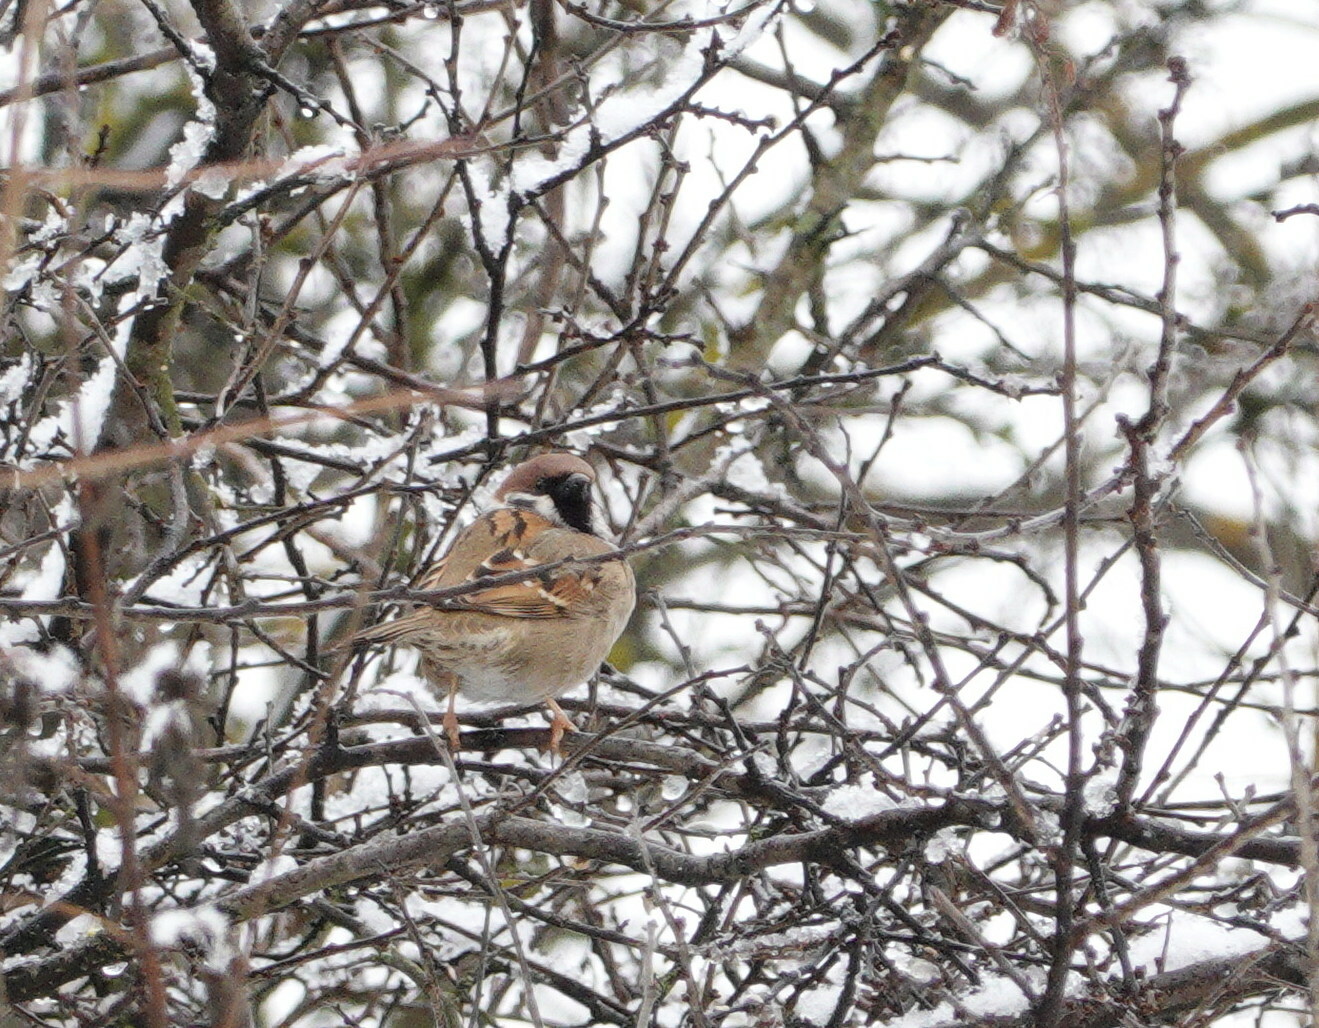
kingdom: Animalia
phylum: Chordata
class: Aves
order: Passeriformes
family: Passeridae
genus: Passer
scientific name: Passer montanus
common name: Eurasian tree sparrow
